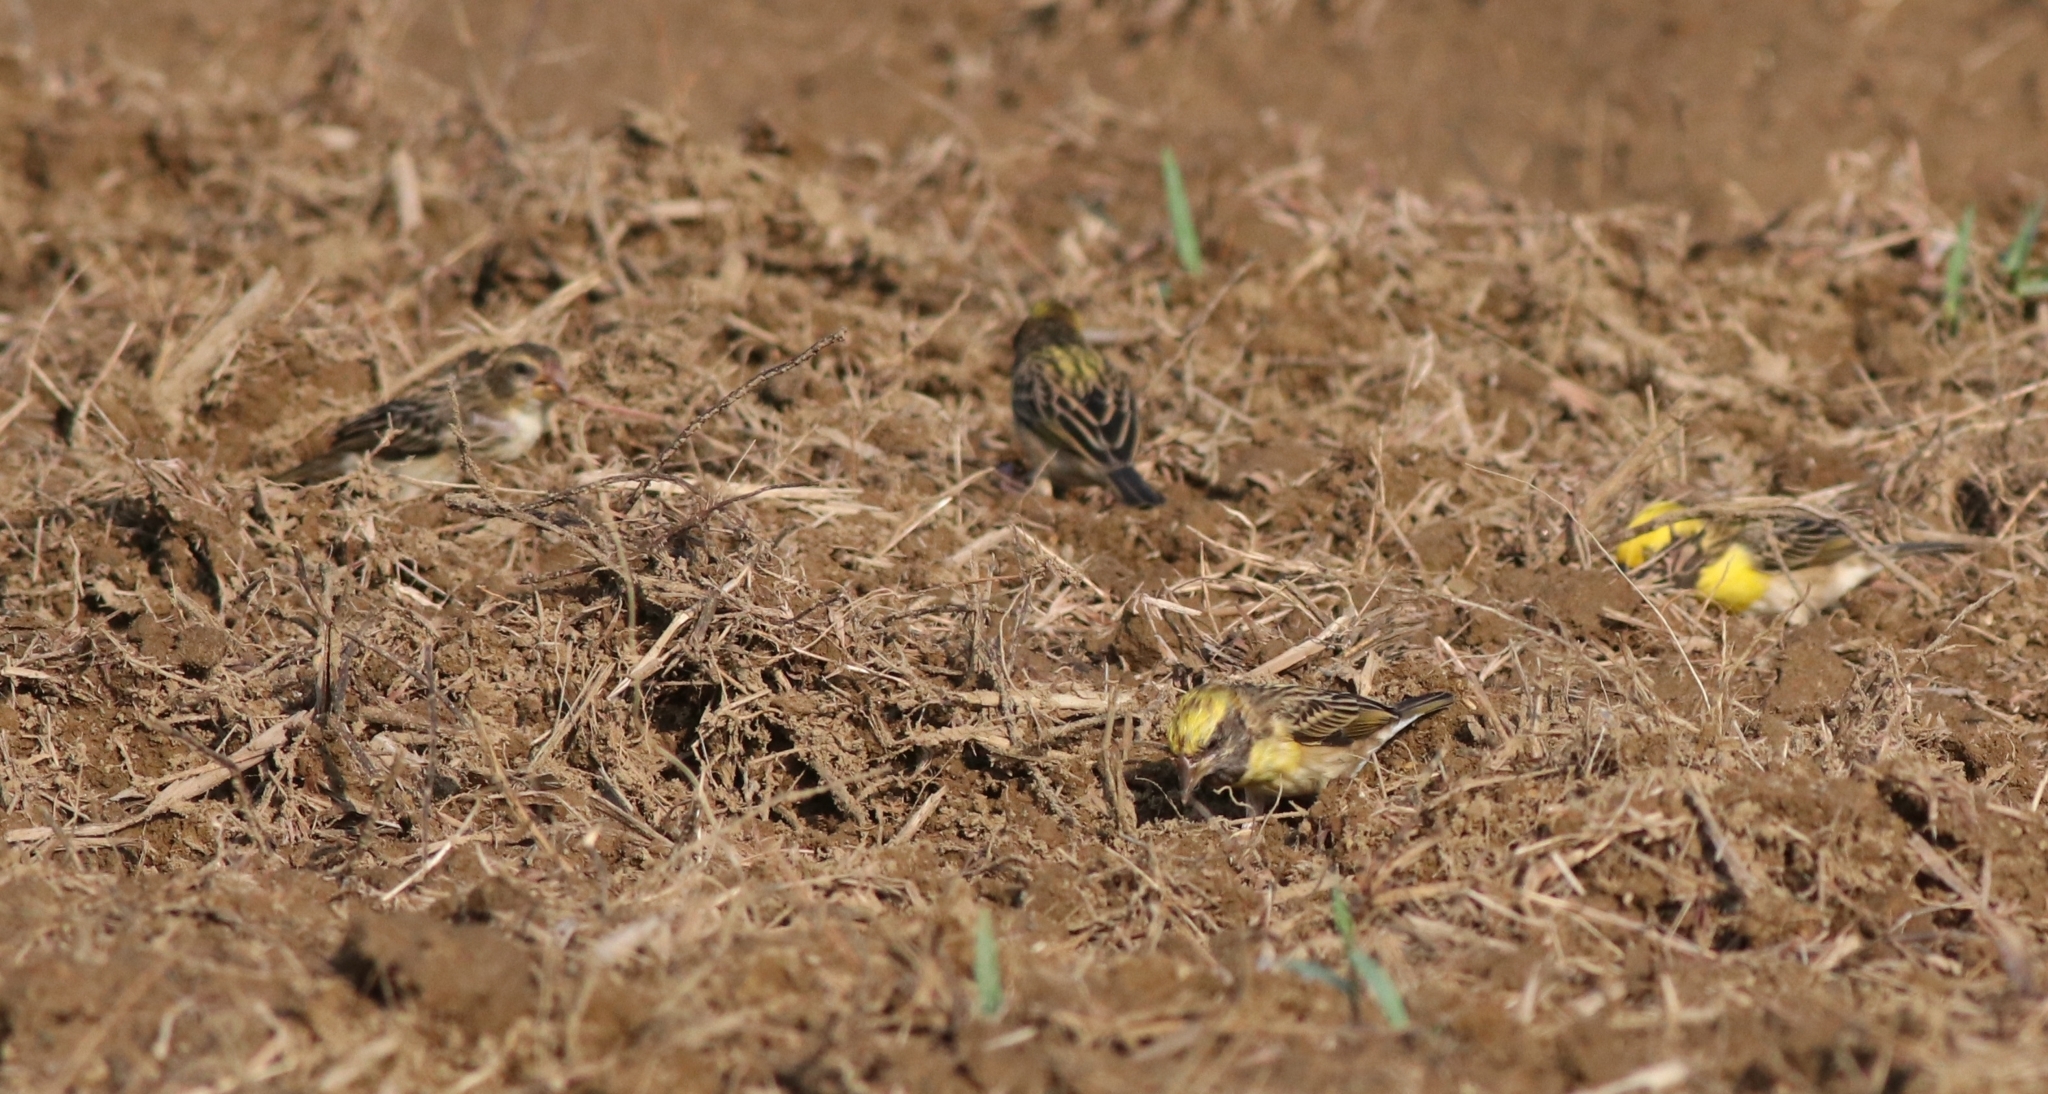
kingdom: Animalia
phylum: Chordata
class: Aves
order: Passeriformes
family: Ploceidae
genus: Ploceus
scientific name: Ploceus philippinus
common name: Baya weaver
